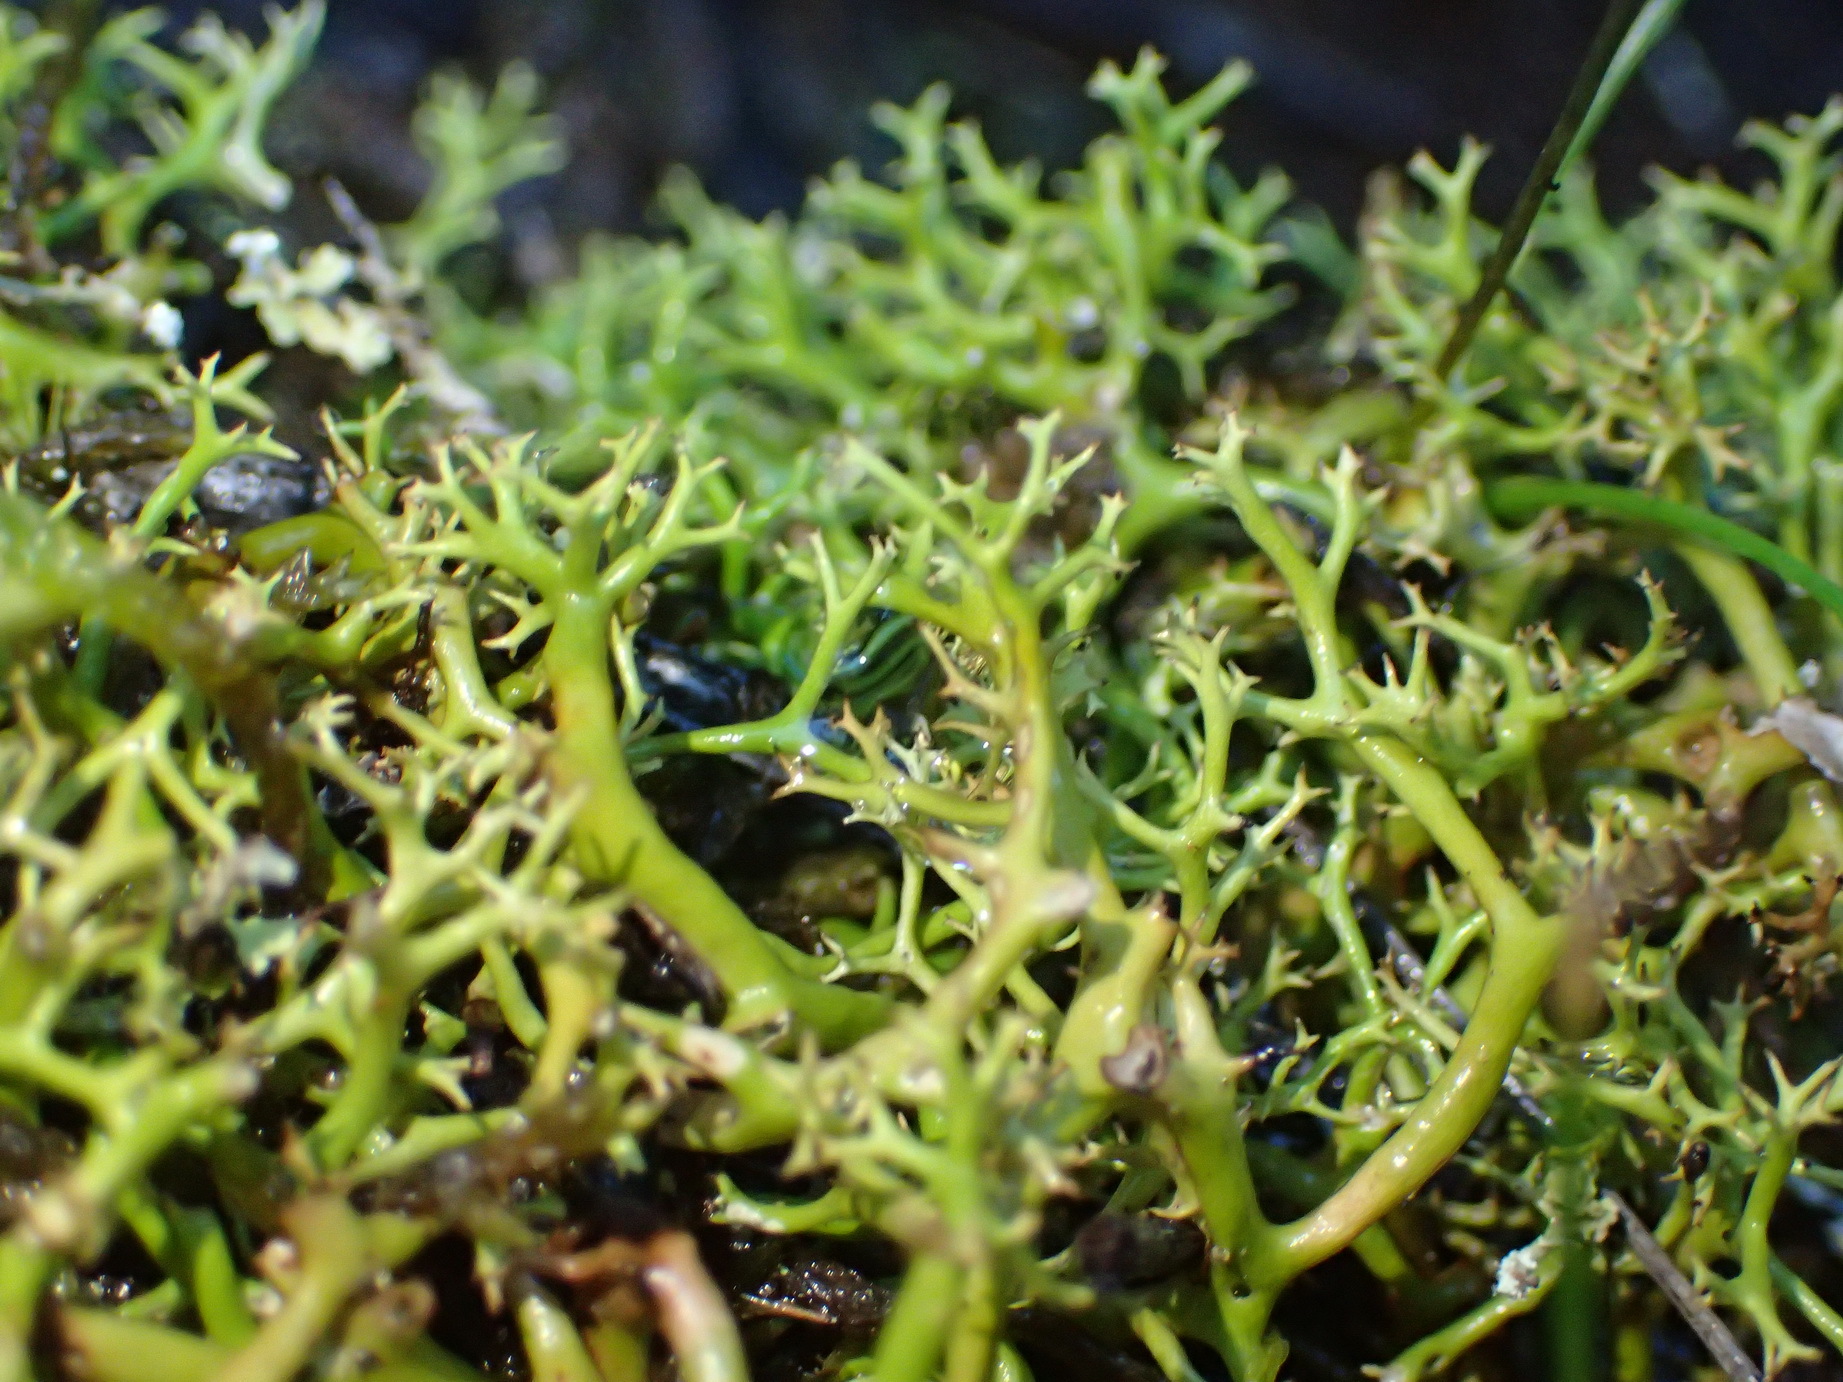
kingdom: Fungi
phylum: Ascomycota
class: Lecanoromycetes
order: Lecanorales
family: Cladoniaceae
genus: Cladia
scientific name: Cladia aggregata
